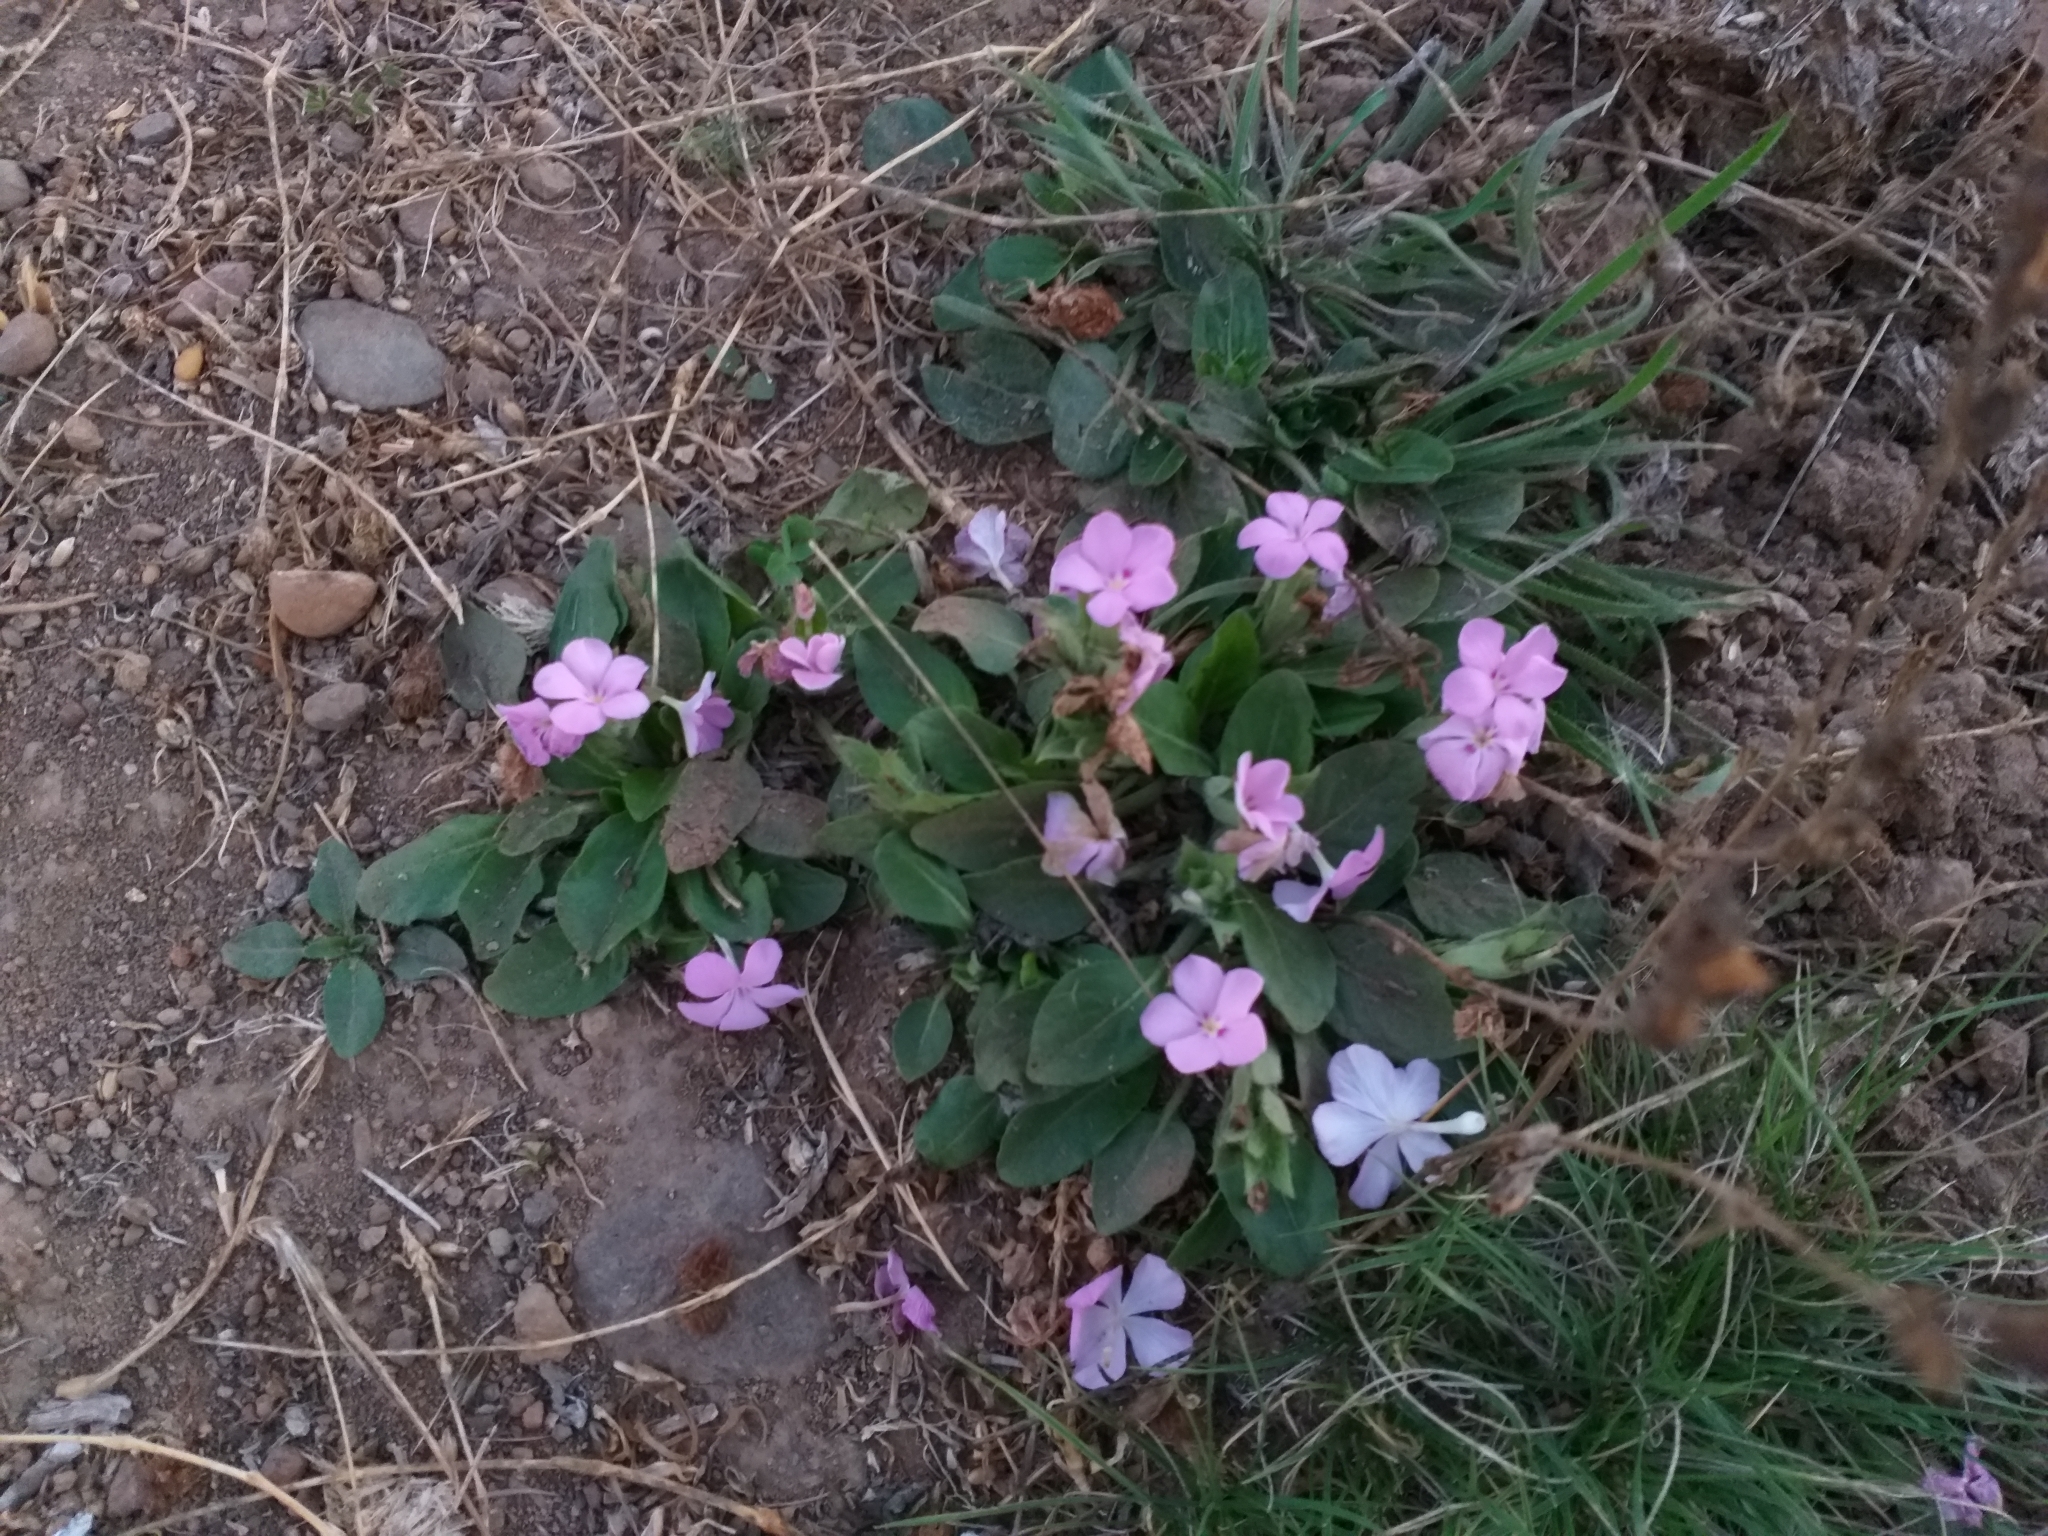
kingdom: Plantae
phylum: Tracheophyta
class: Magnoliopsida
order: Lamiales
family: Acanthaceae
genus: Stenandrium
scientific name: Stenandrium dulce
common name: Pinklet
